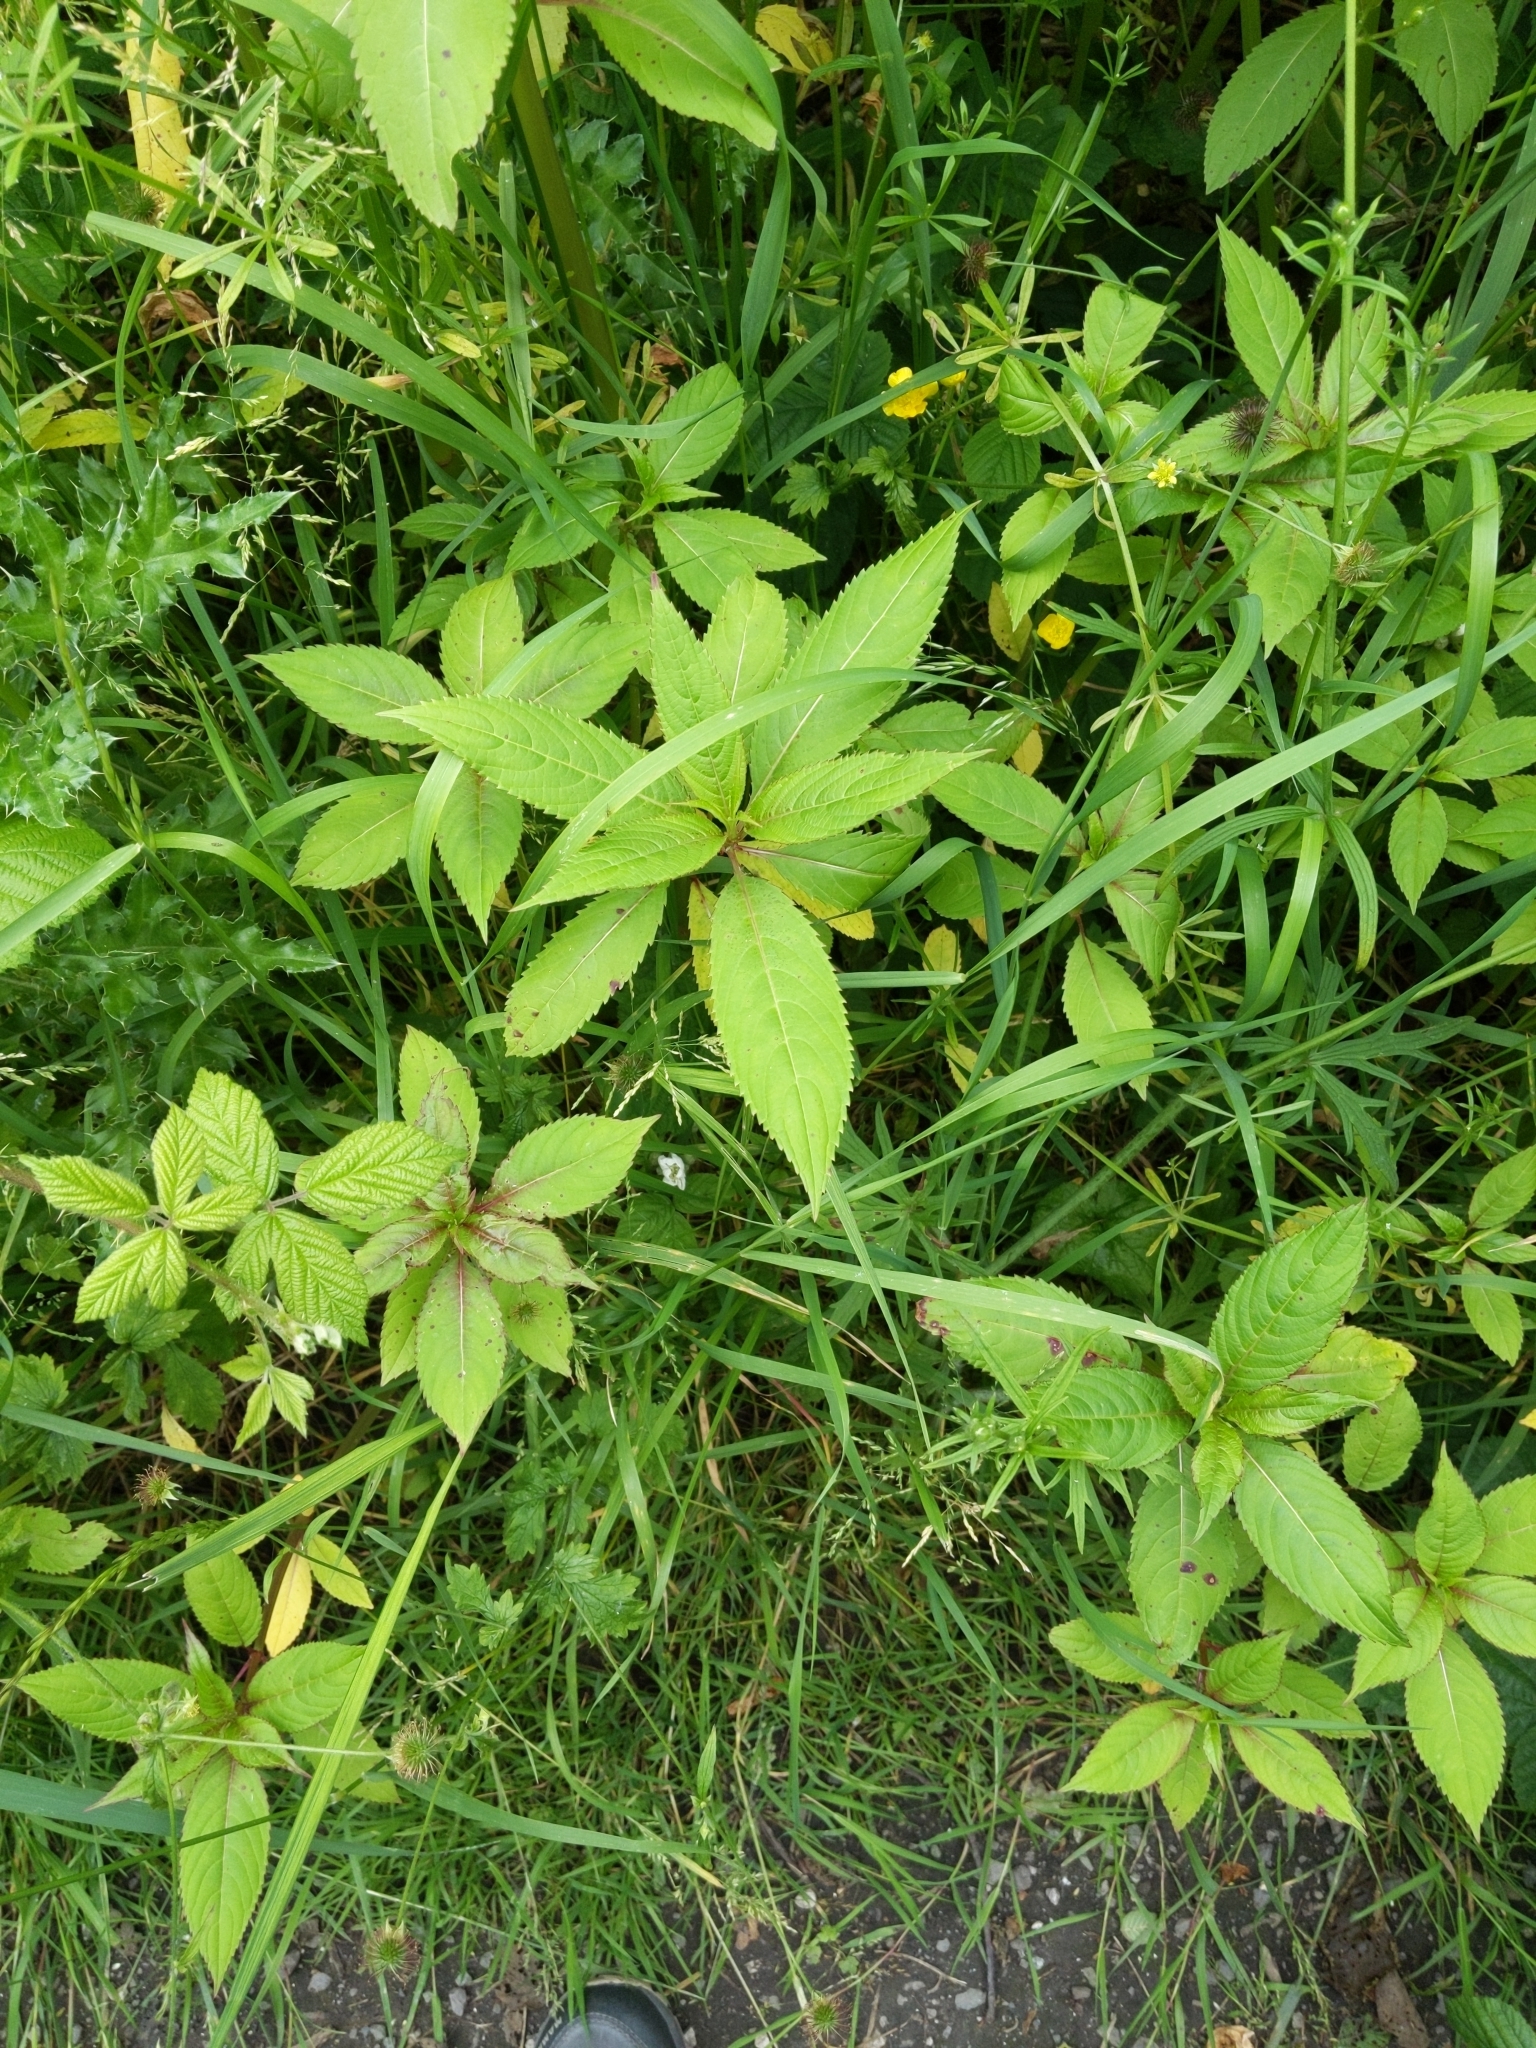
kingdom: Plantae
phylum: Tracheophyta
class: Magnoliopsida
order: Ericales
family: Balsaminaceae
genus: Impatiens
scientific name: Impatiens glandulifera
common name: Himalayan balsam
